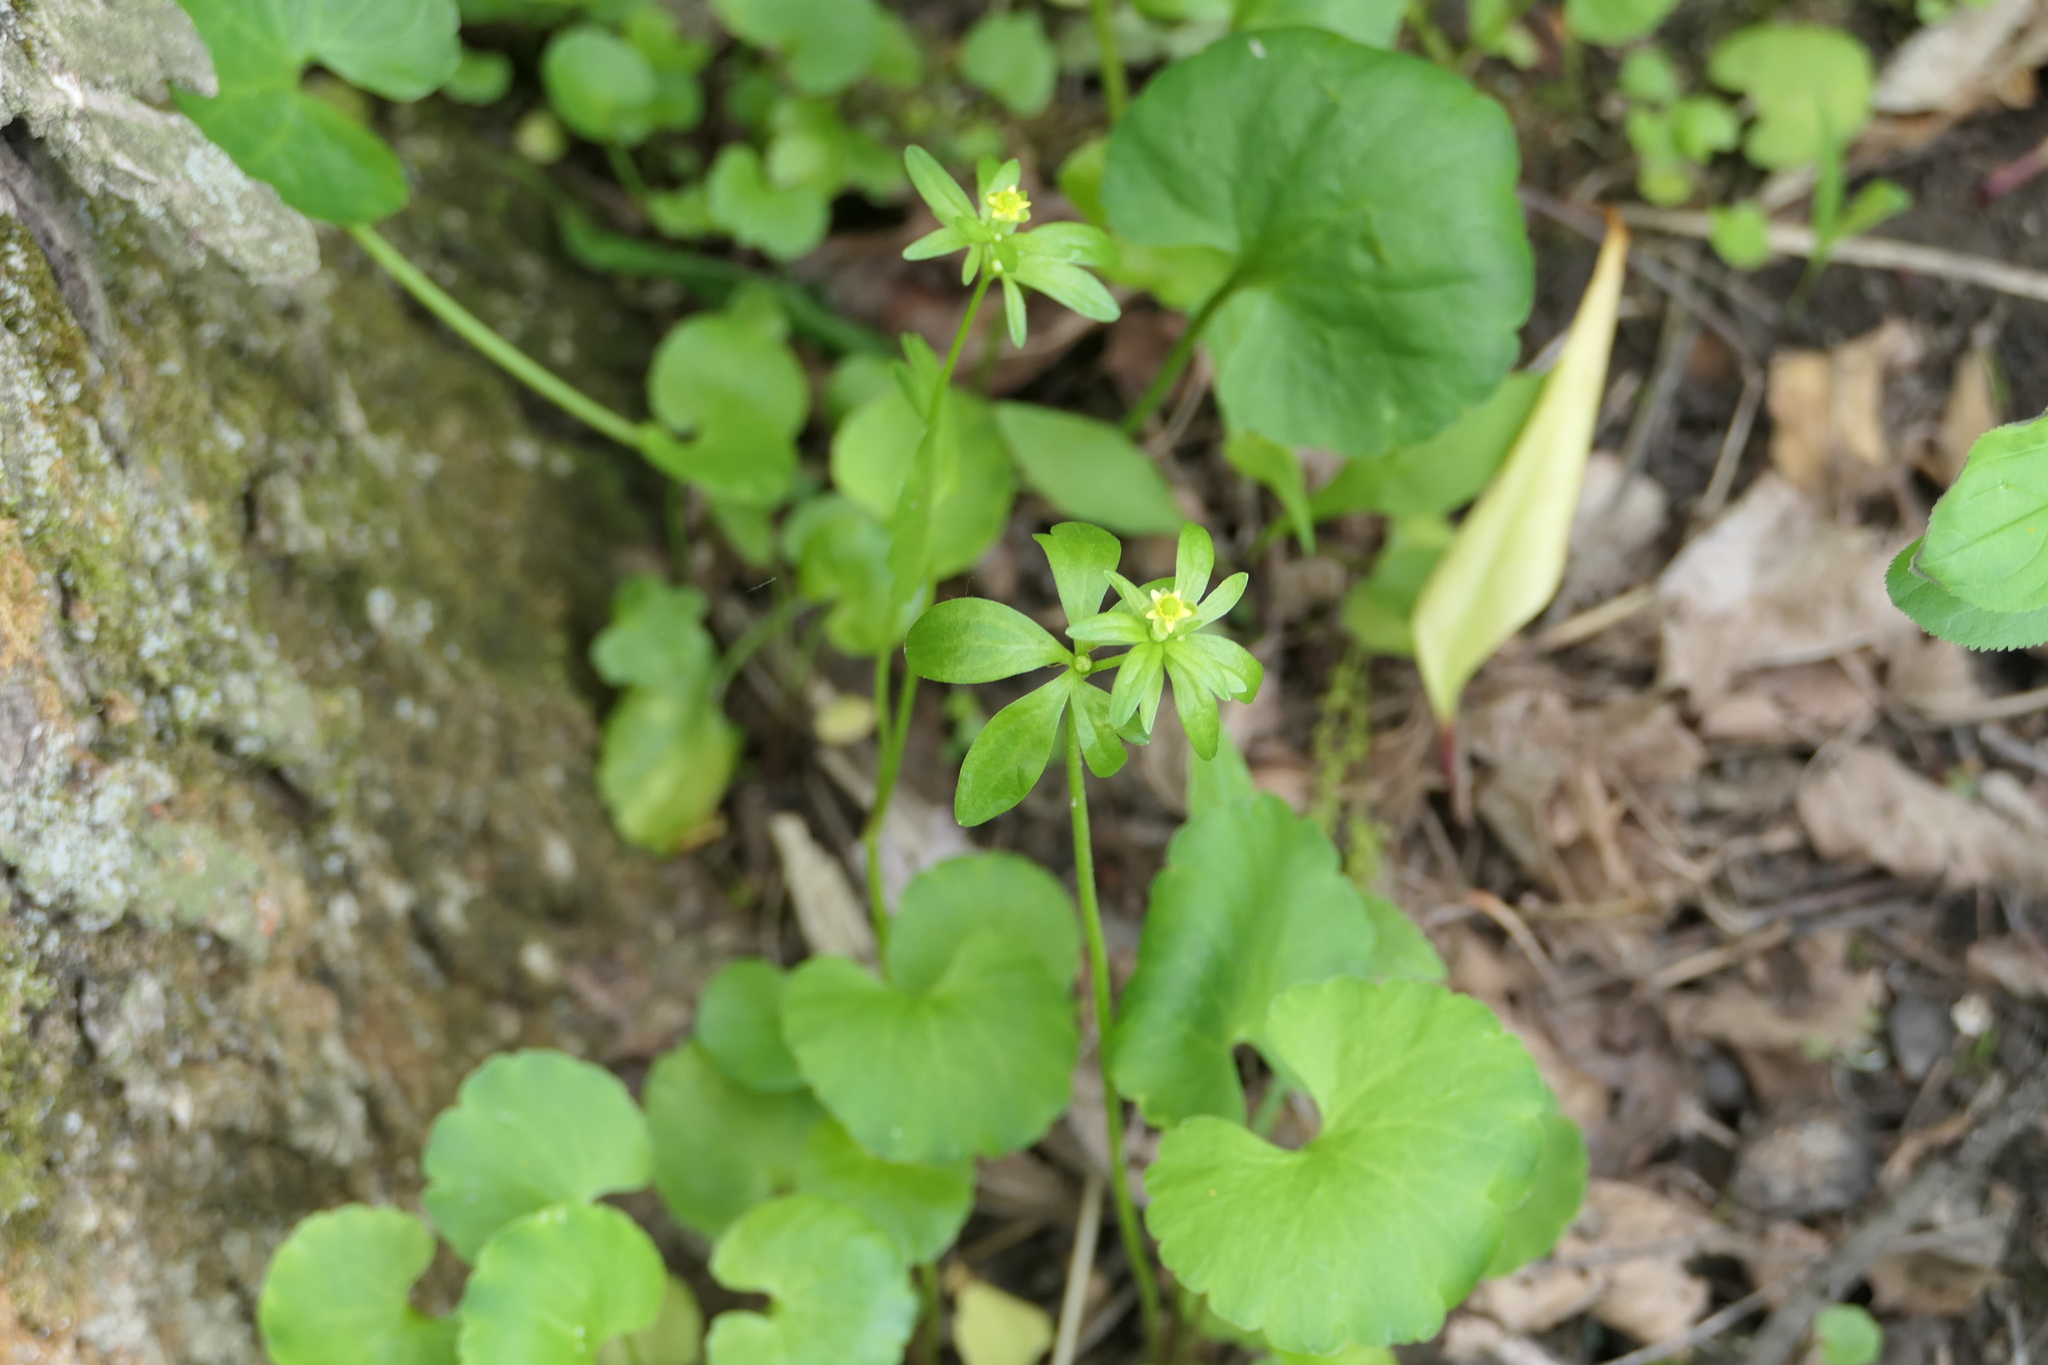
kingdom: Plantae
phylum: Tracheophyta
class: Magnoliopsida
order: Ranunculales
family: Ranunculaceae
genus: Ranunculus
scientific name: Ranunculus abortivus
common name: Early wood buttercup
